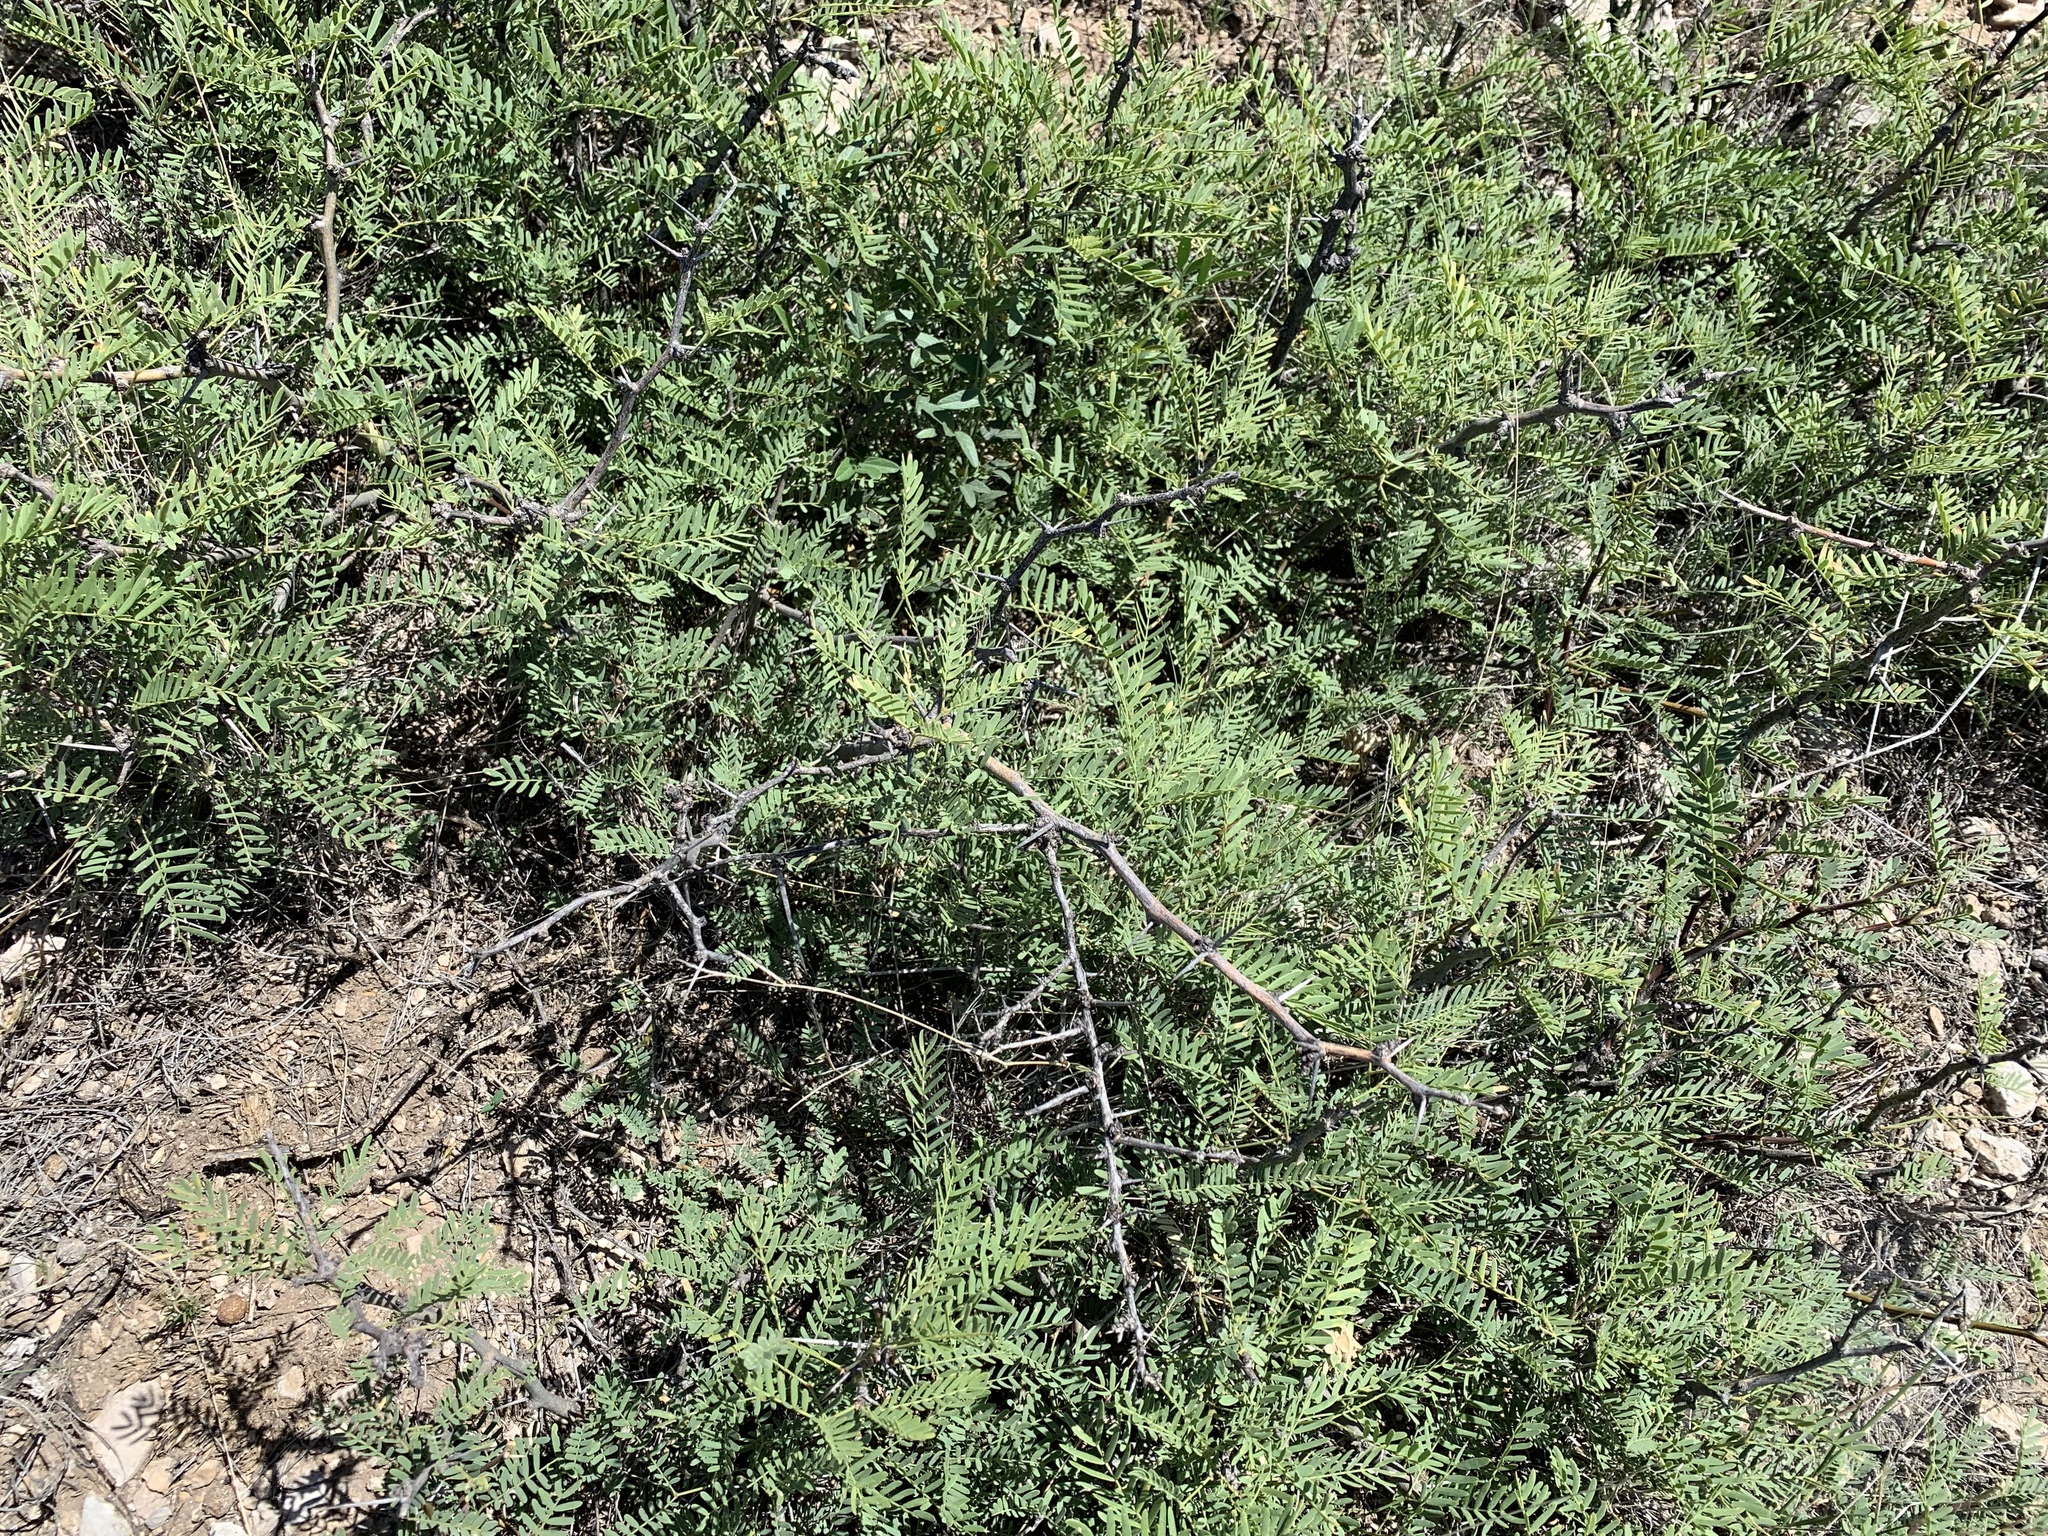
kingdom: Plantae
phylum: Tracheophyta
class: Magnoliopsida
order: Fabales
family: Fabaceae
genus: Prosopis
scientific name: Prosopis glandulosa
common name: Honey mesquite
